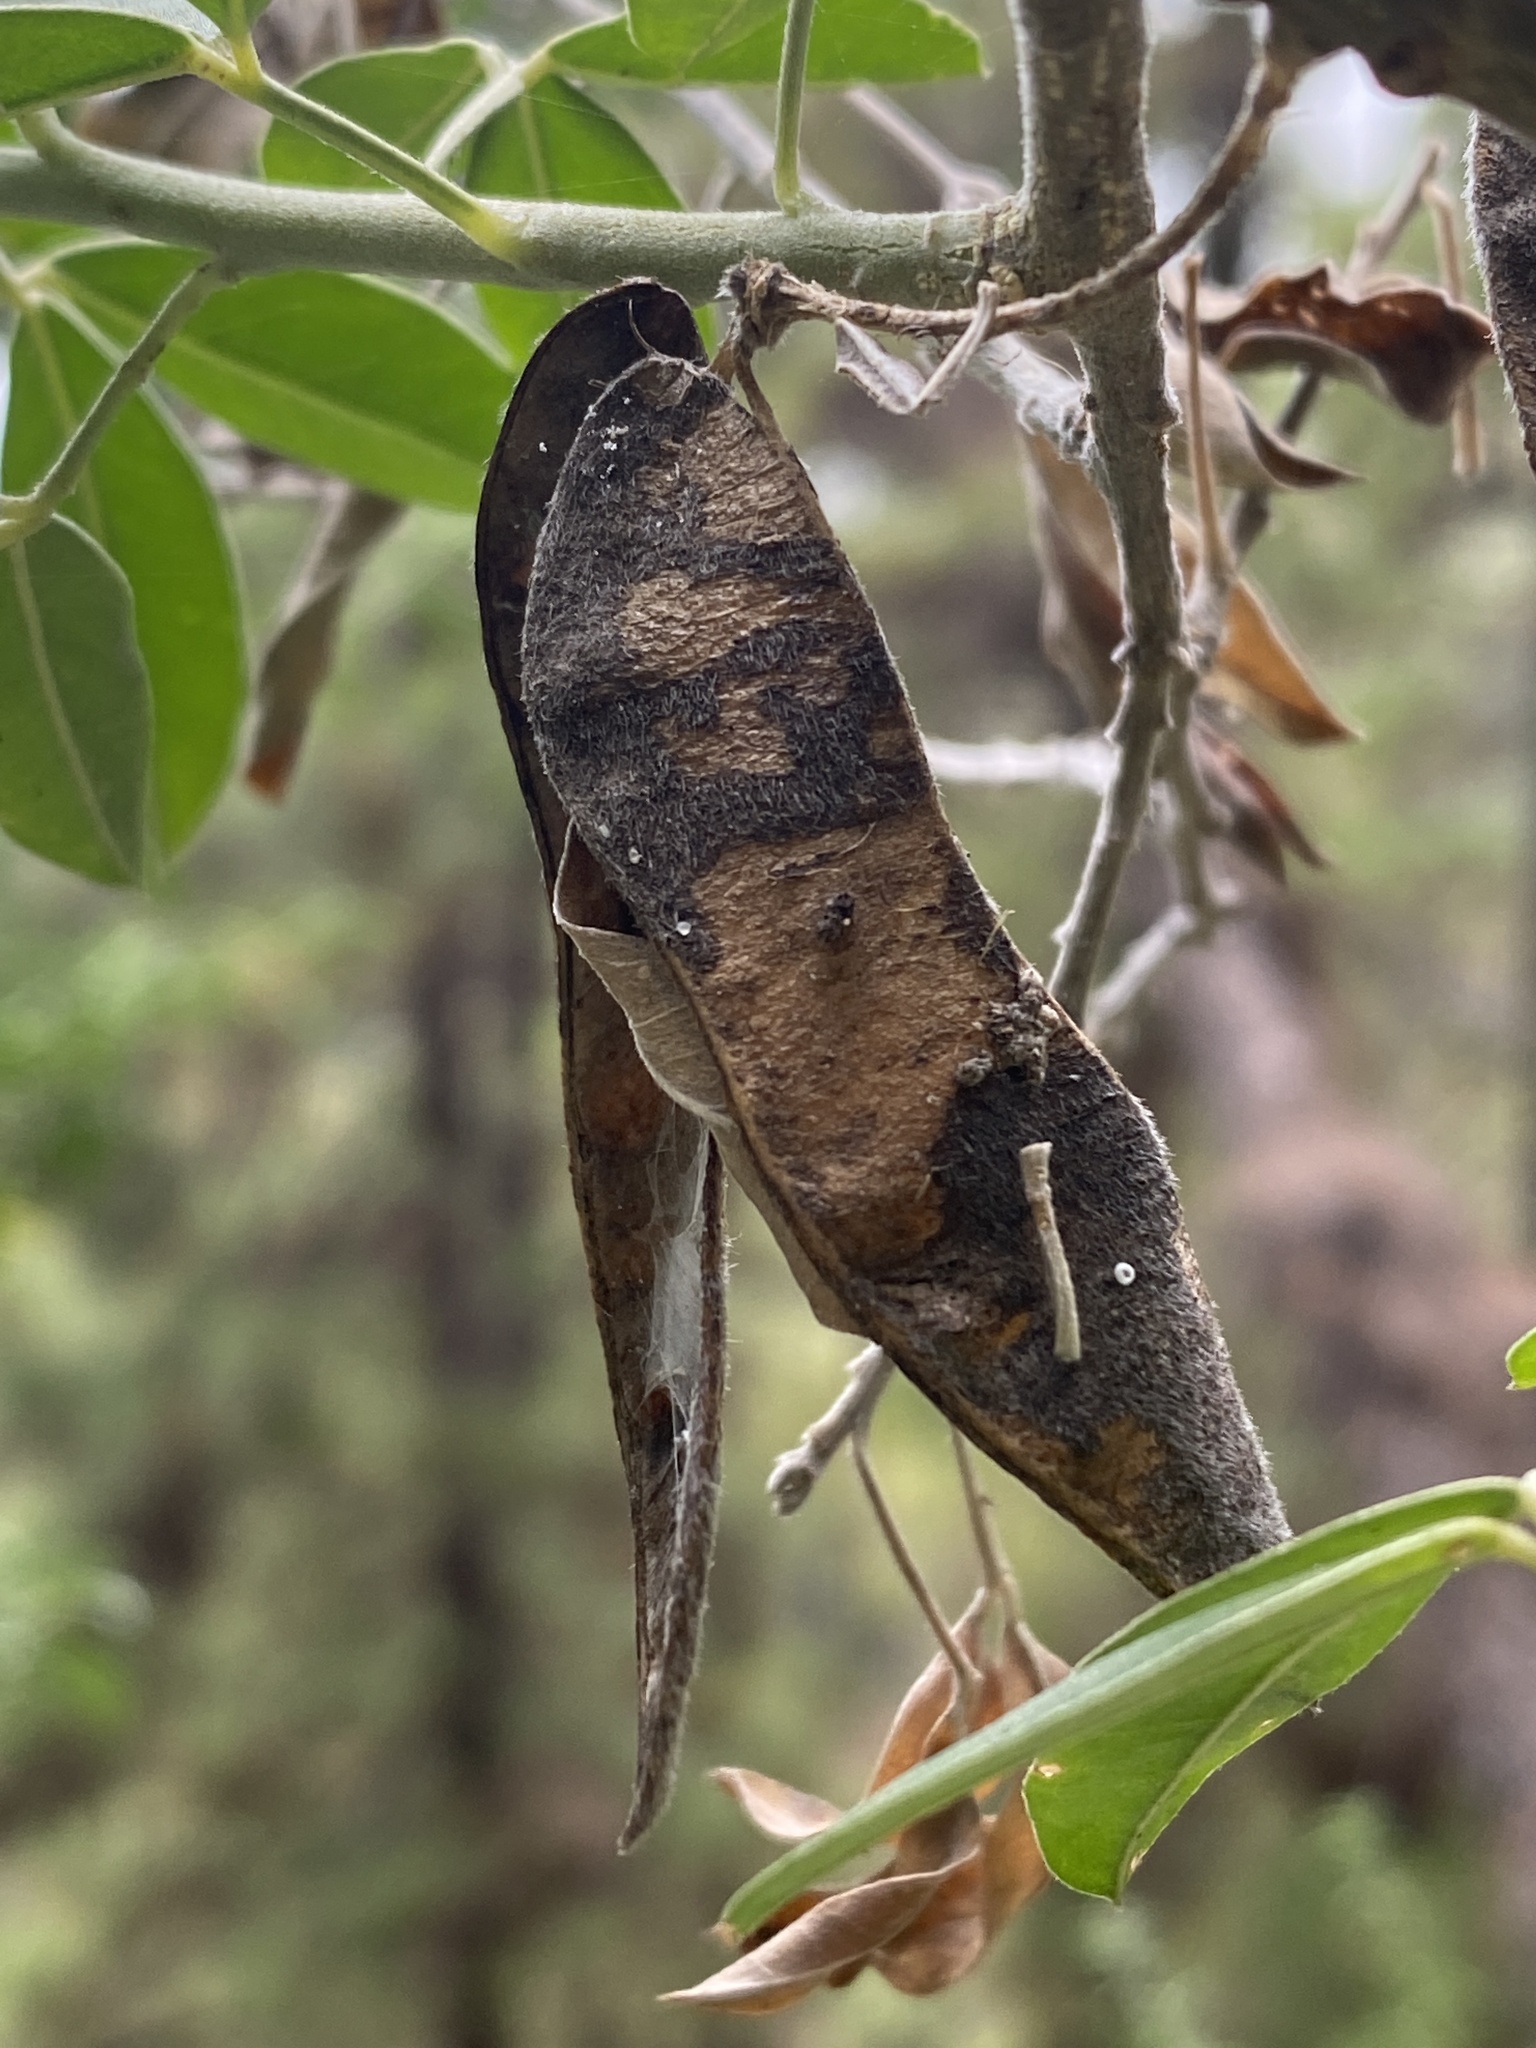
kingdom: Plantae
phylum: Tracheophyta
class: Magnoliopsida
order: Fabales
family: Fabaceae
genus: Chamaecytisus
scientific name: Chamaecytisus prolifer
